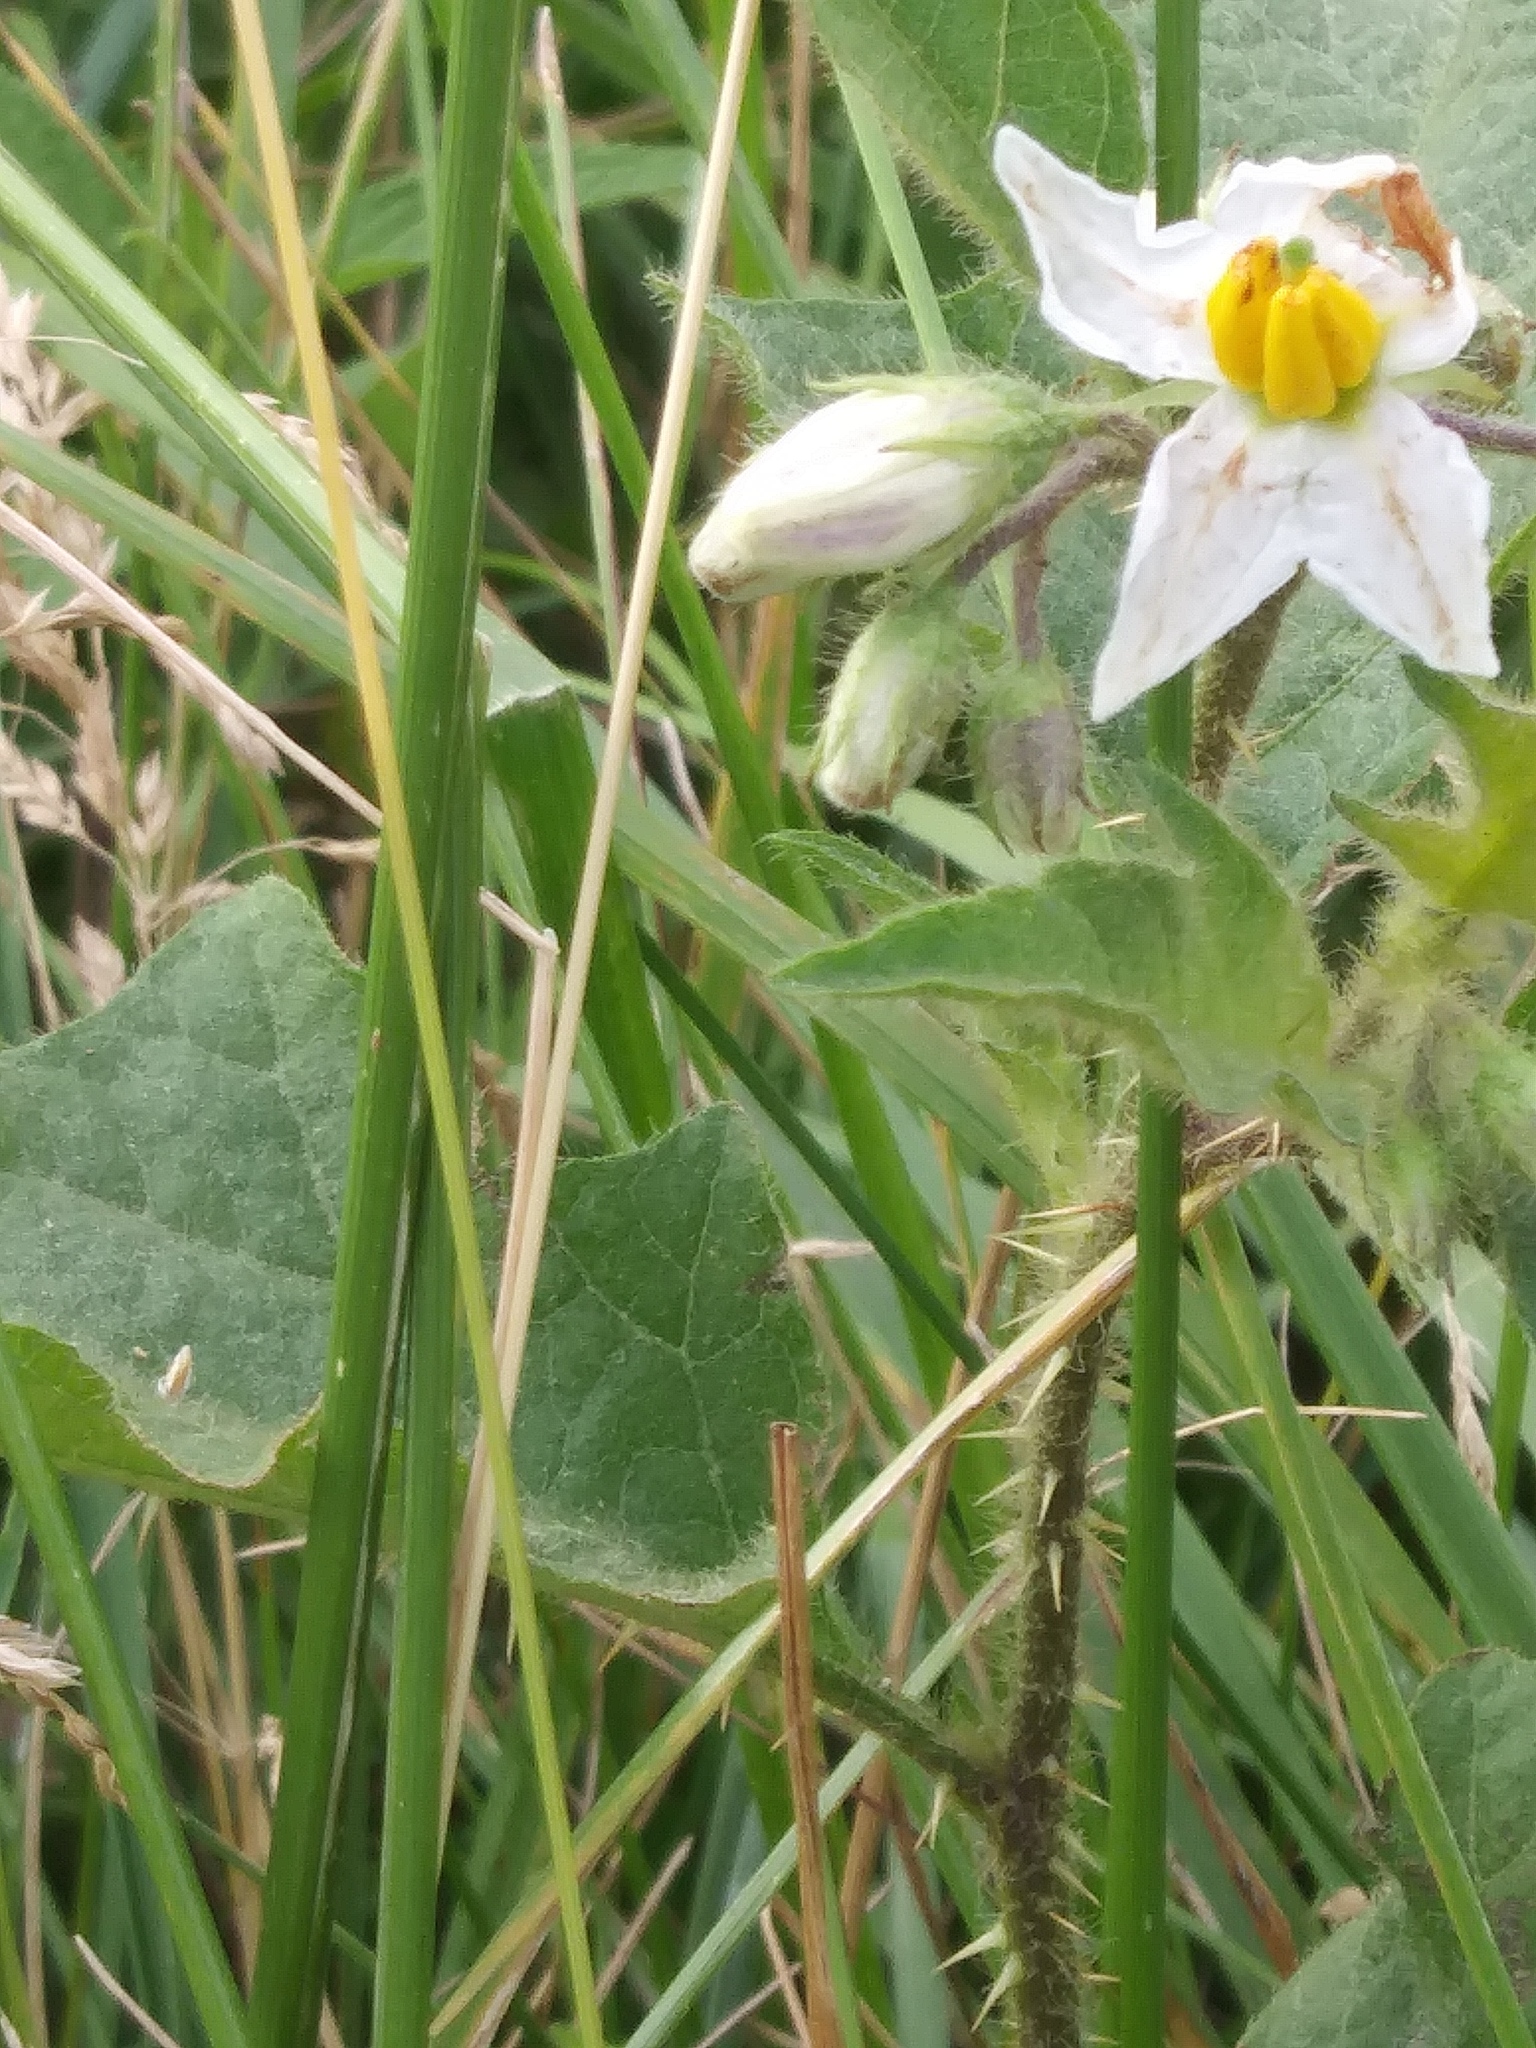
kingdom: Plantae
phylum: Tracheophyta
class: Magnoliopsida
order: Solanales
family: Solanaceae
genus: Solanum
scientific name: Solanum carolinense
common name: Horse-nettle
